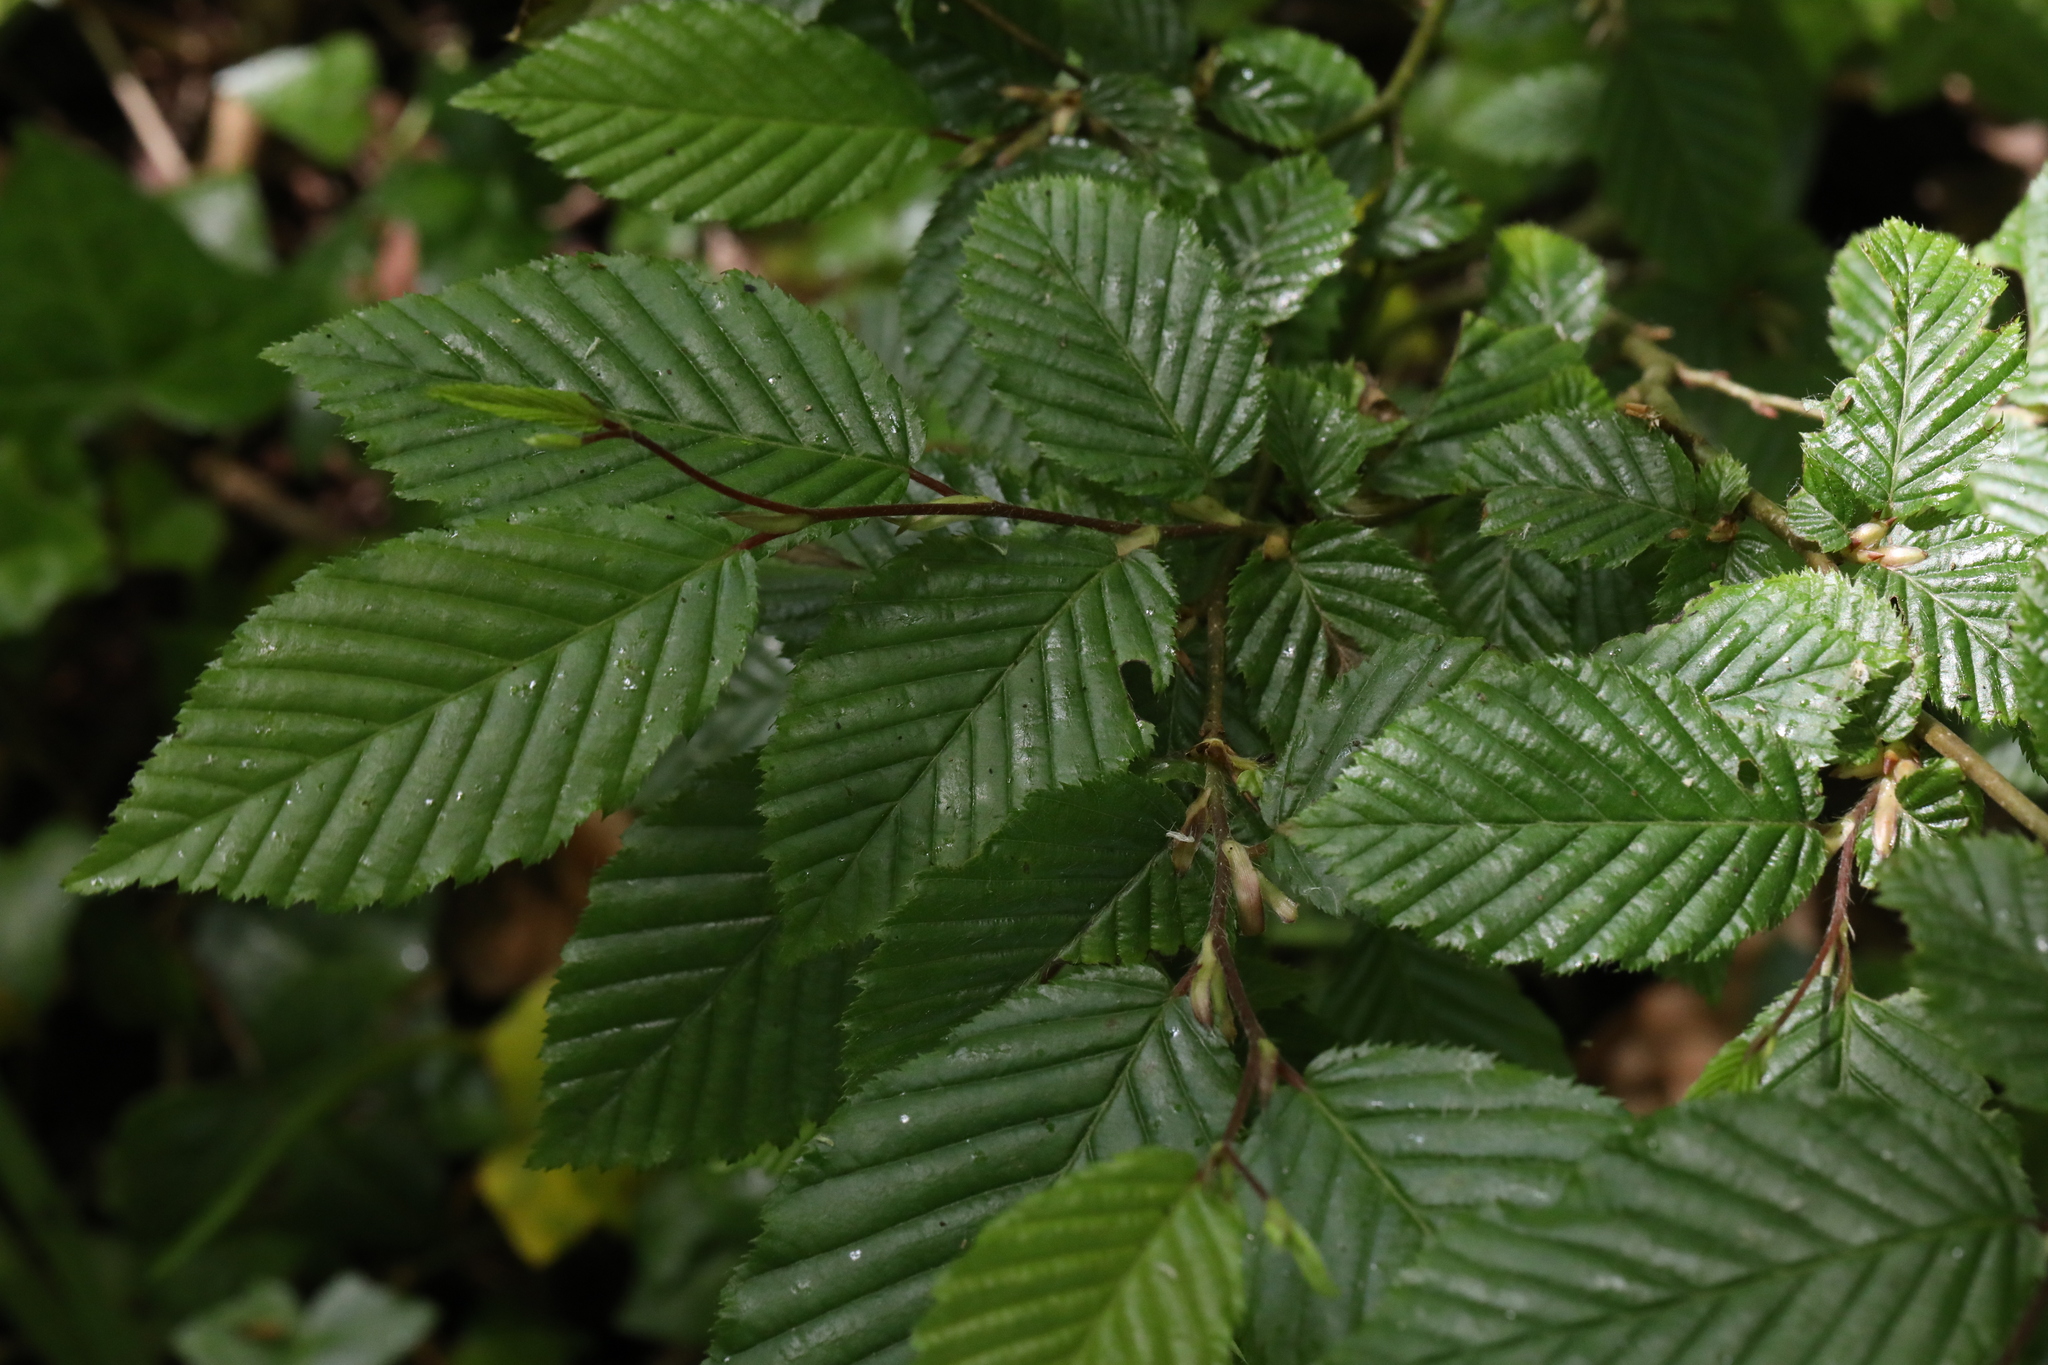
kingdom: Plantae
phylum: Tracheophyta
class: Magnoliopsida
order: Fagales
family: Betulaceae
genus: Carpinus
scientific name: Carpinus betulus
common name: Hornbeam
